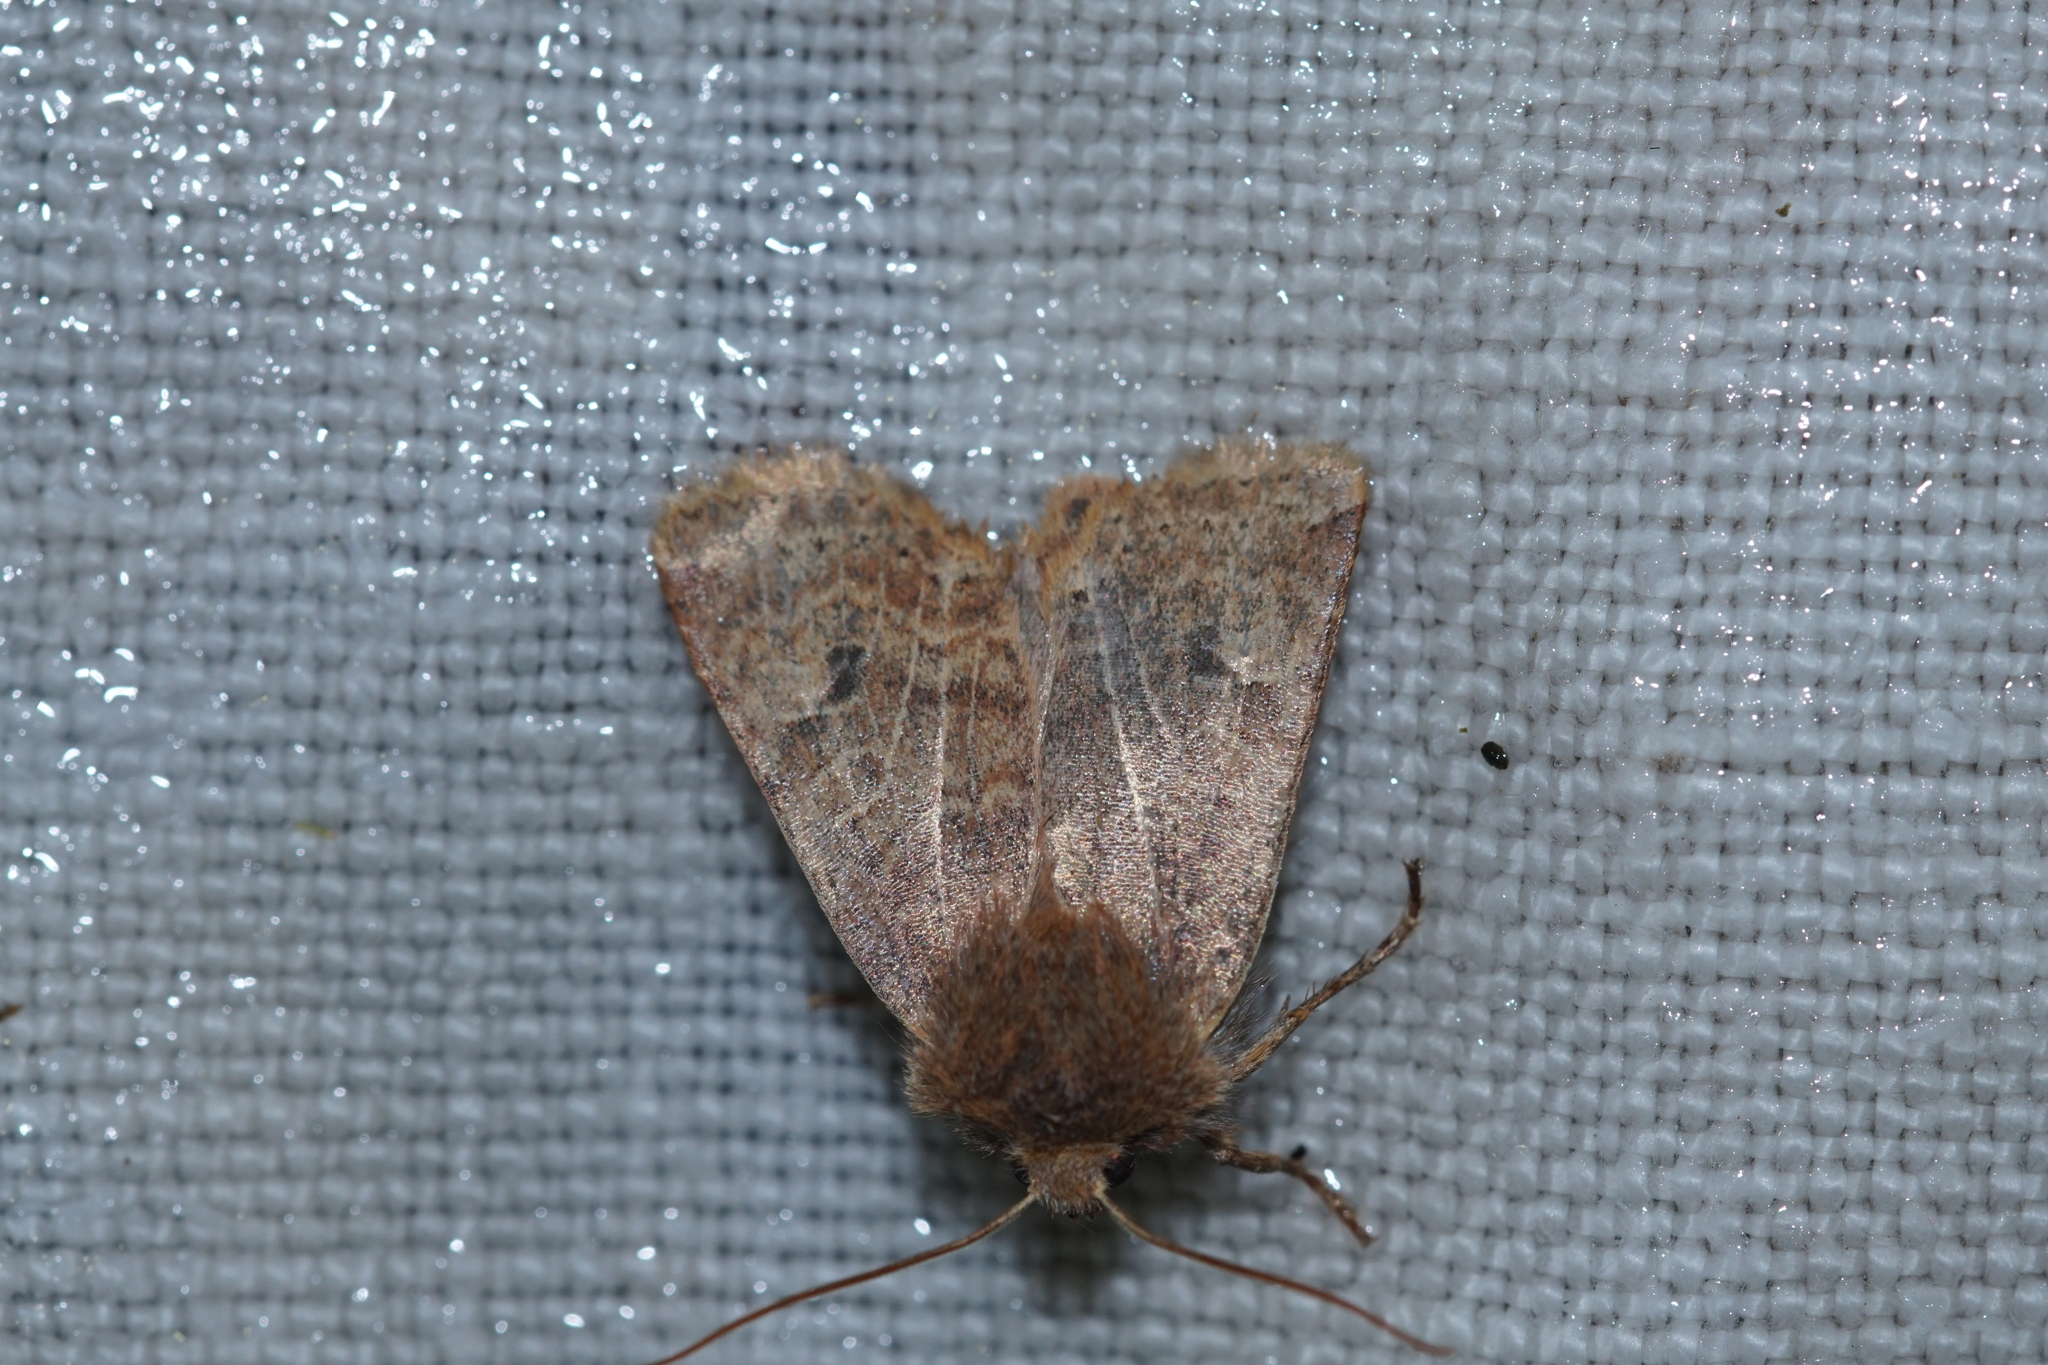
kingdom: Animalia
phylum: Arthropoda
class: Insecta
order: Lepidoptera
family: Noctuidae
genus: Conistra
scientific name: Conistra vaccinii
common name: Chestnut
